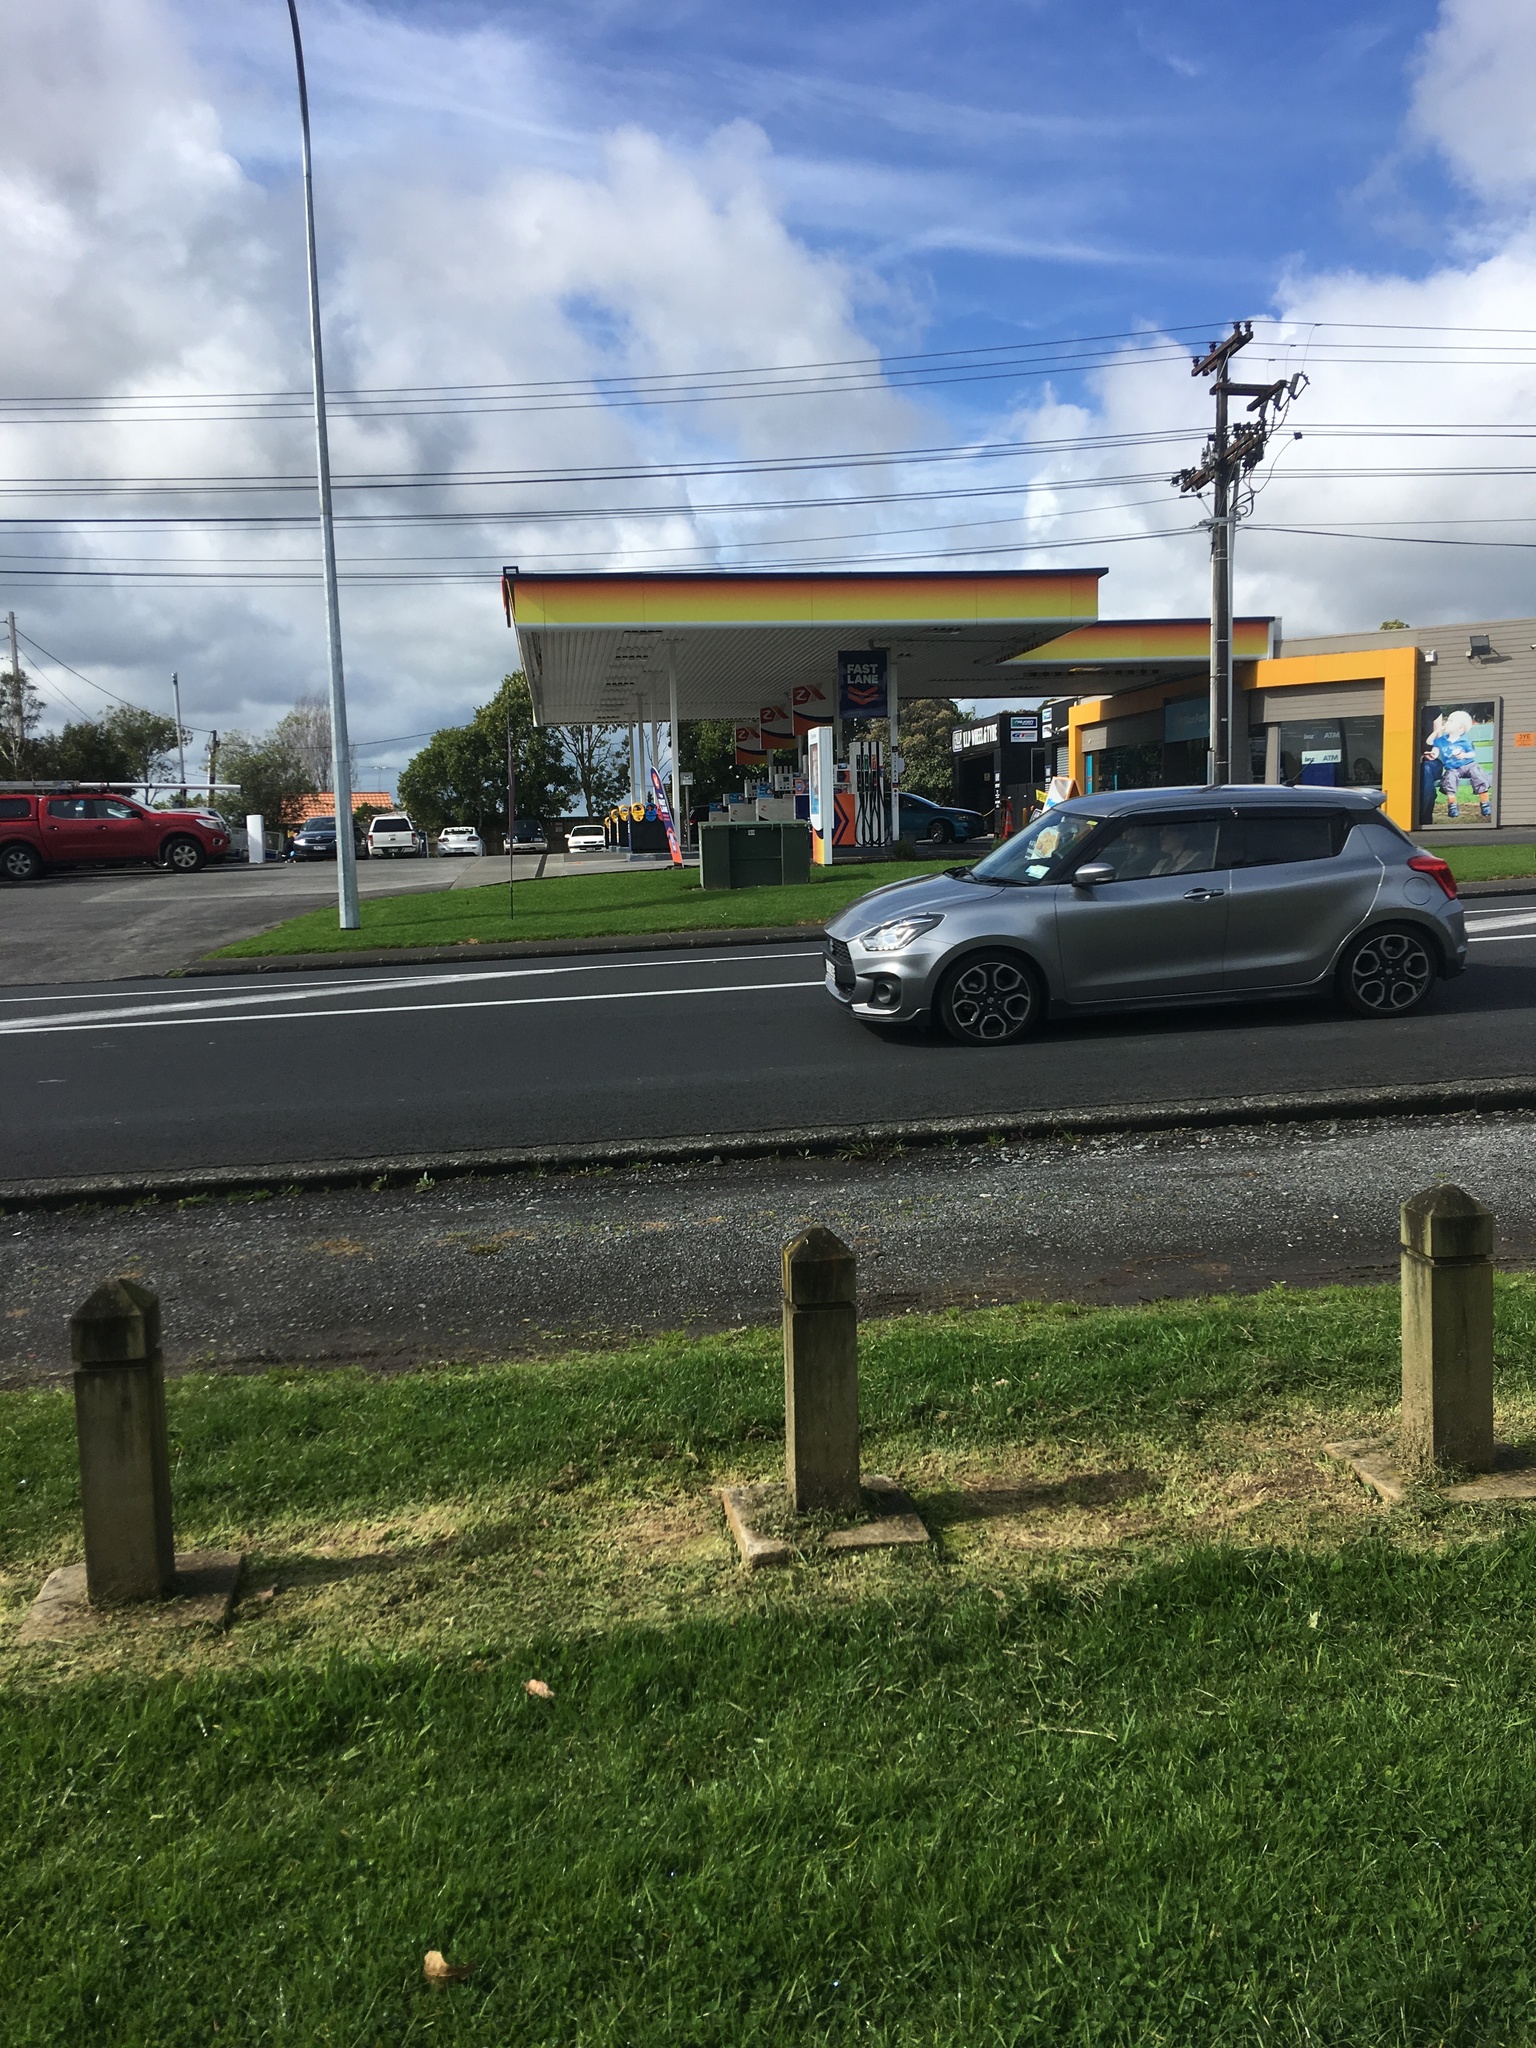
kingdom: Plantae
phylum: Tracheophyta
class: Liliopsida
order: Poales
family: Poaceae
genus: Cenchrus
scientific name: Cenchrus clandestinus
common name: Kikuyugrass
